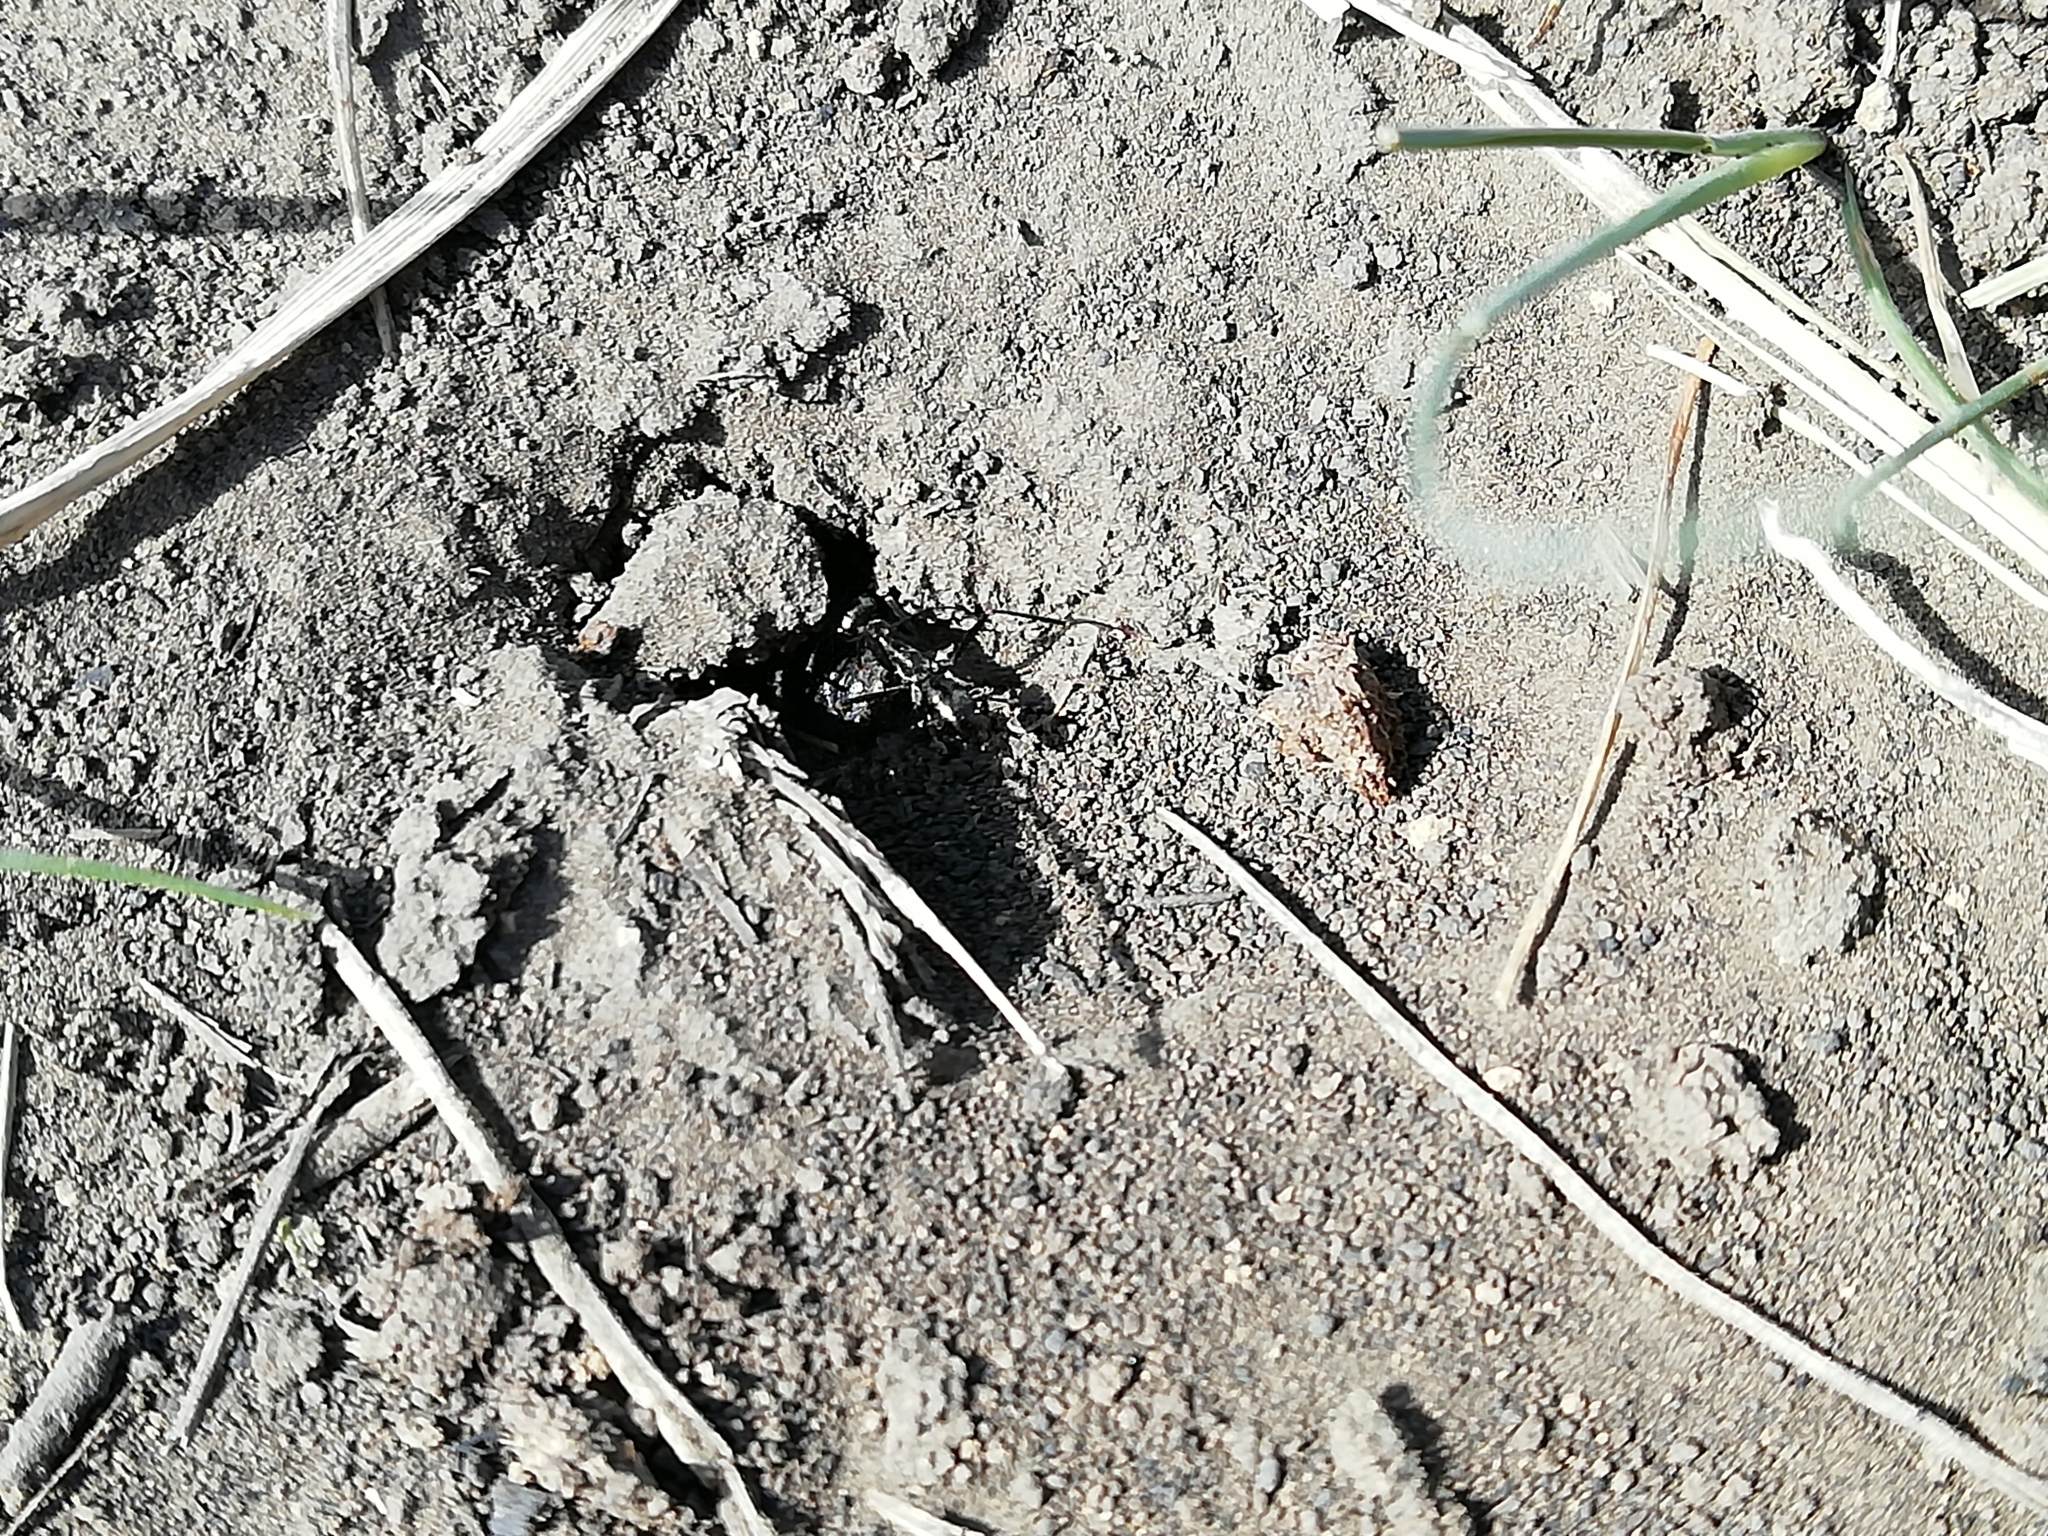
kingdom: Animalia
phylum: Arthropoda
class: Insecta
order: Hymenoptera
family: Formicidae
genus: Cataglyphis
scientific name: Cataglyphis aenescens
